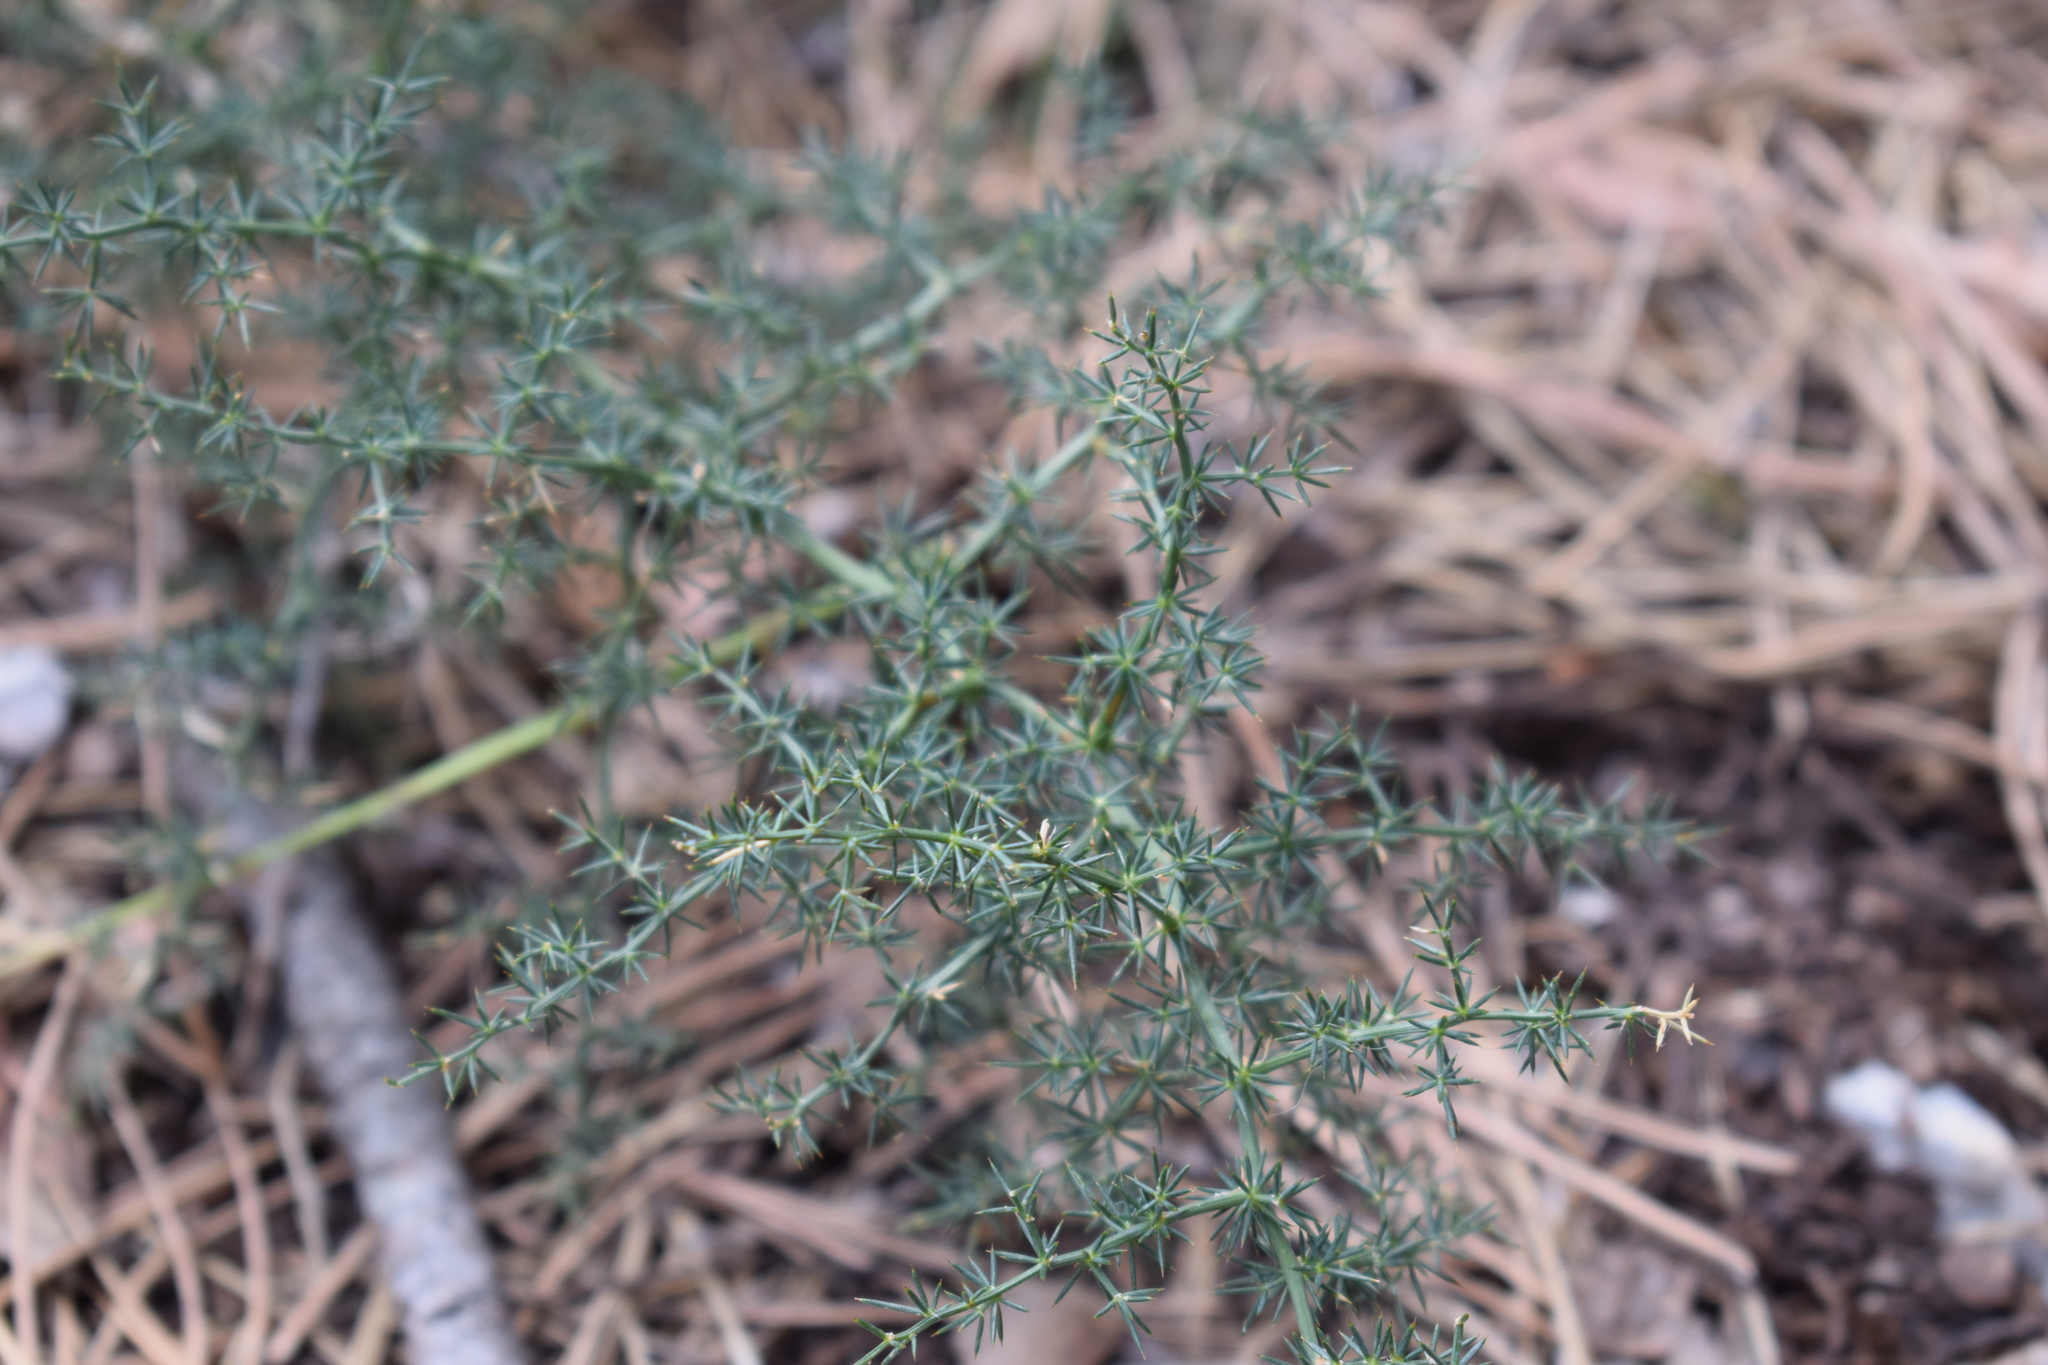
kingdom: Plantae
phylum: Tracheophyta
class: Liliopsida
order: Asparagales
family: Asparagaceae
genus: Asparagus
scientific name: Asparagus acutifolius
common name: Wild asparagus
